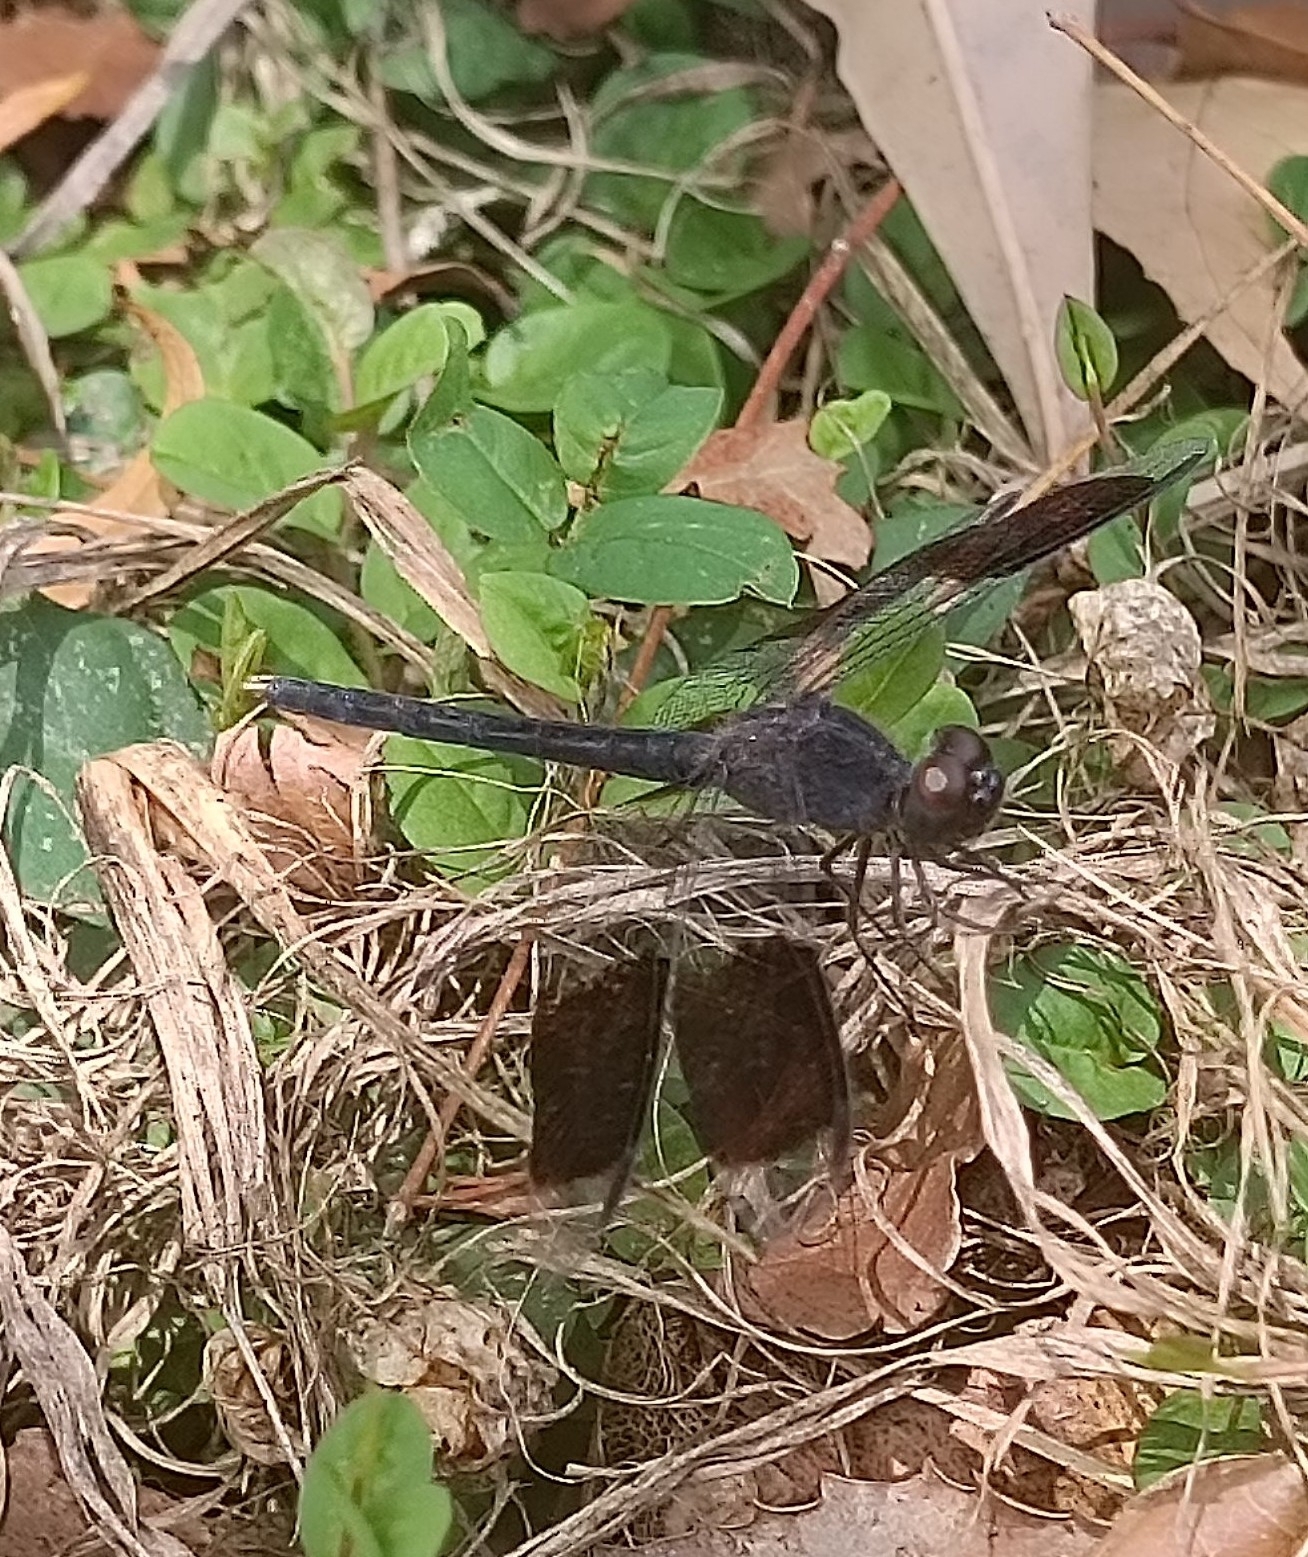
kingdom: Animalia
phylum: Arthropoda
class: Insecta
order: Odonata
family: Libellulidae
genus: Erythrodiplax
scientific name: Erythrodiplax umbrata
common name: Band-winged dragonlet
